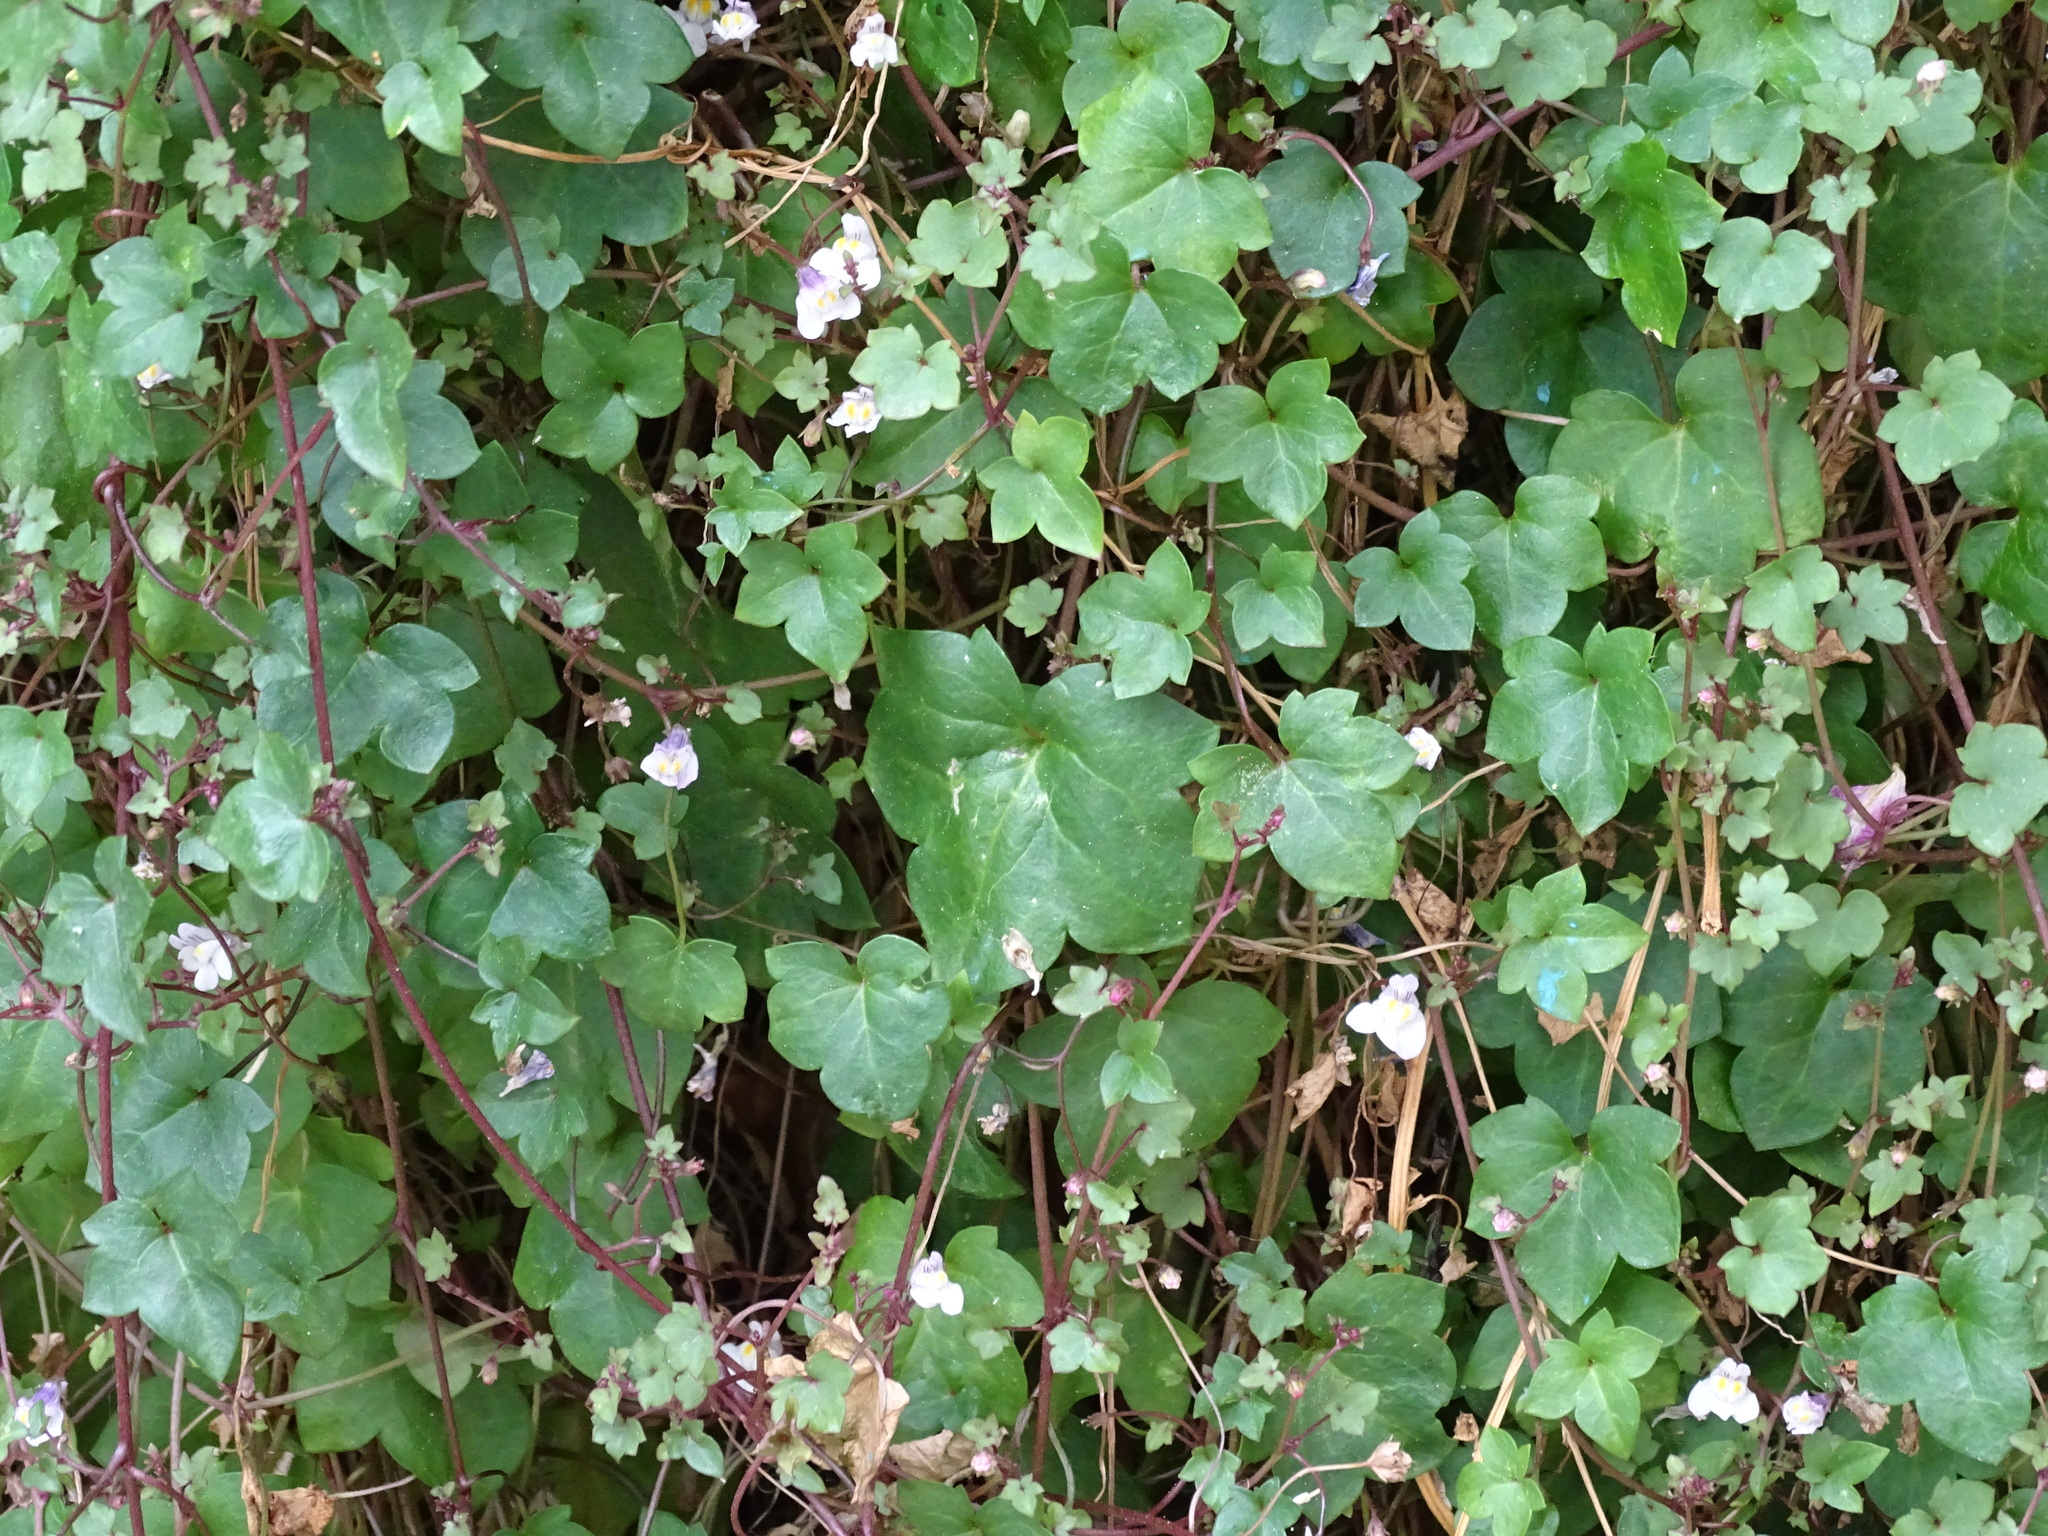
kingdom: Plantae
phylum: Tracheophyta
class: Magnoliopsida
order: Lamiales
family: Plantaginaceae
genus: Cymbalaria
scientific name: Cymbalaria muralis
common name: Ivy-leaved toadflax
